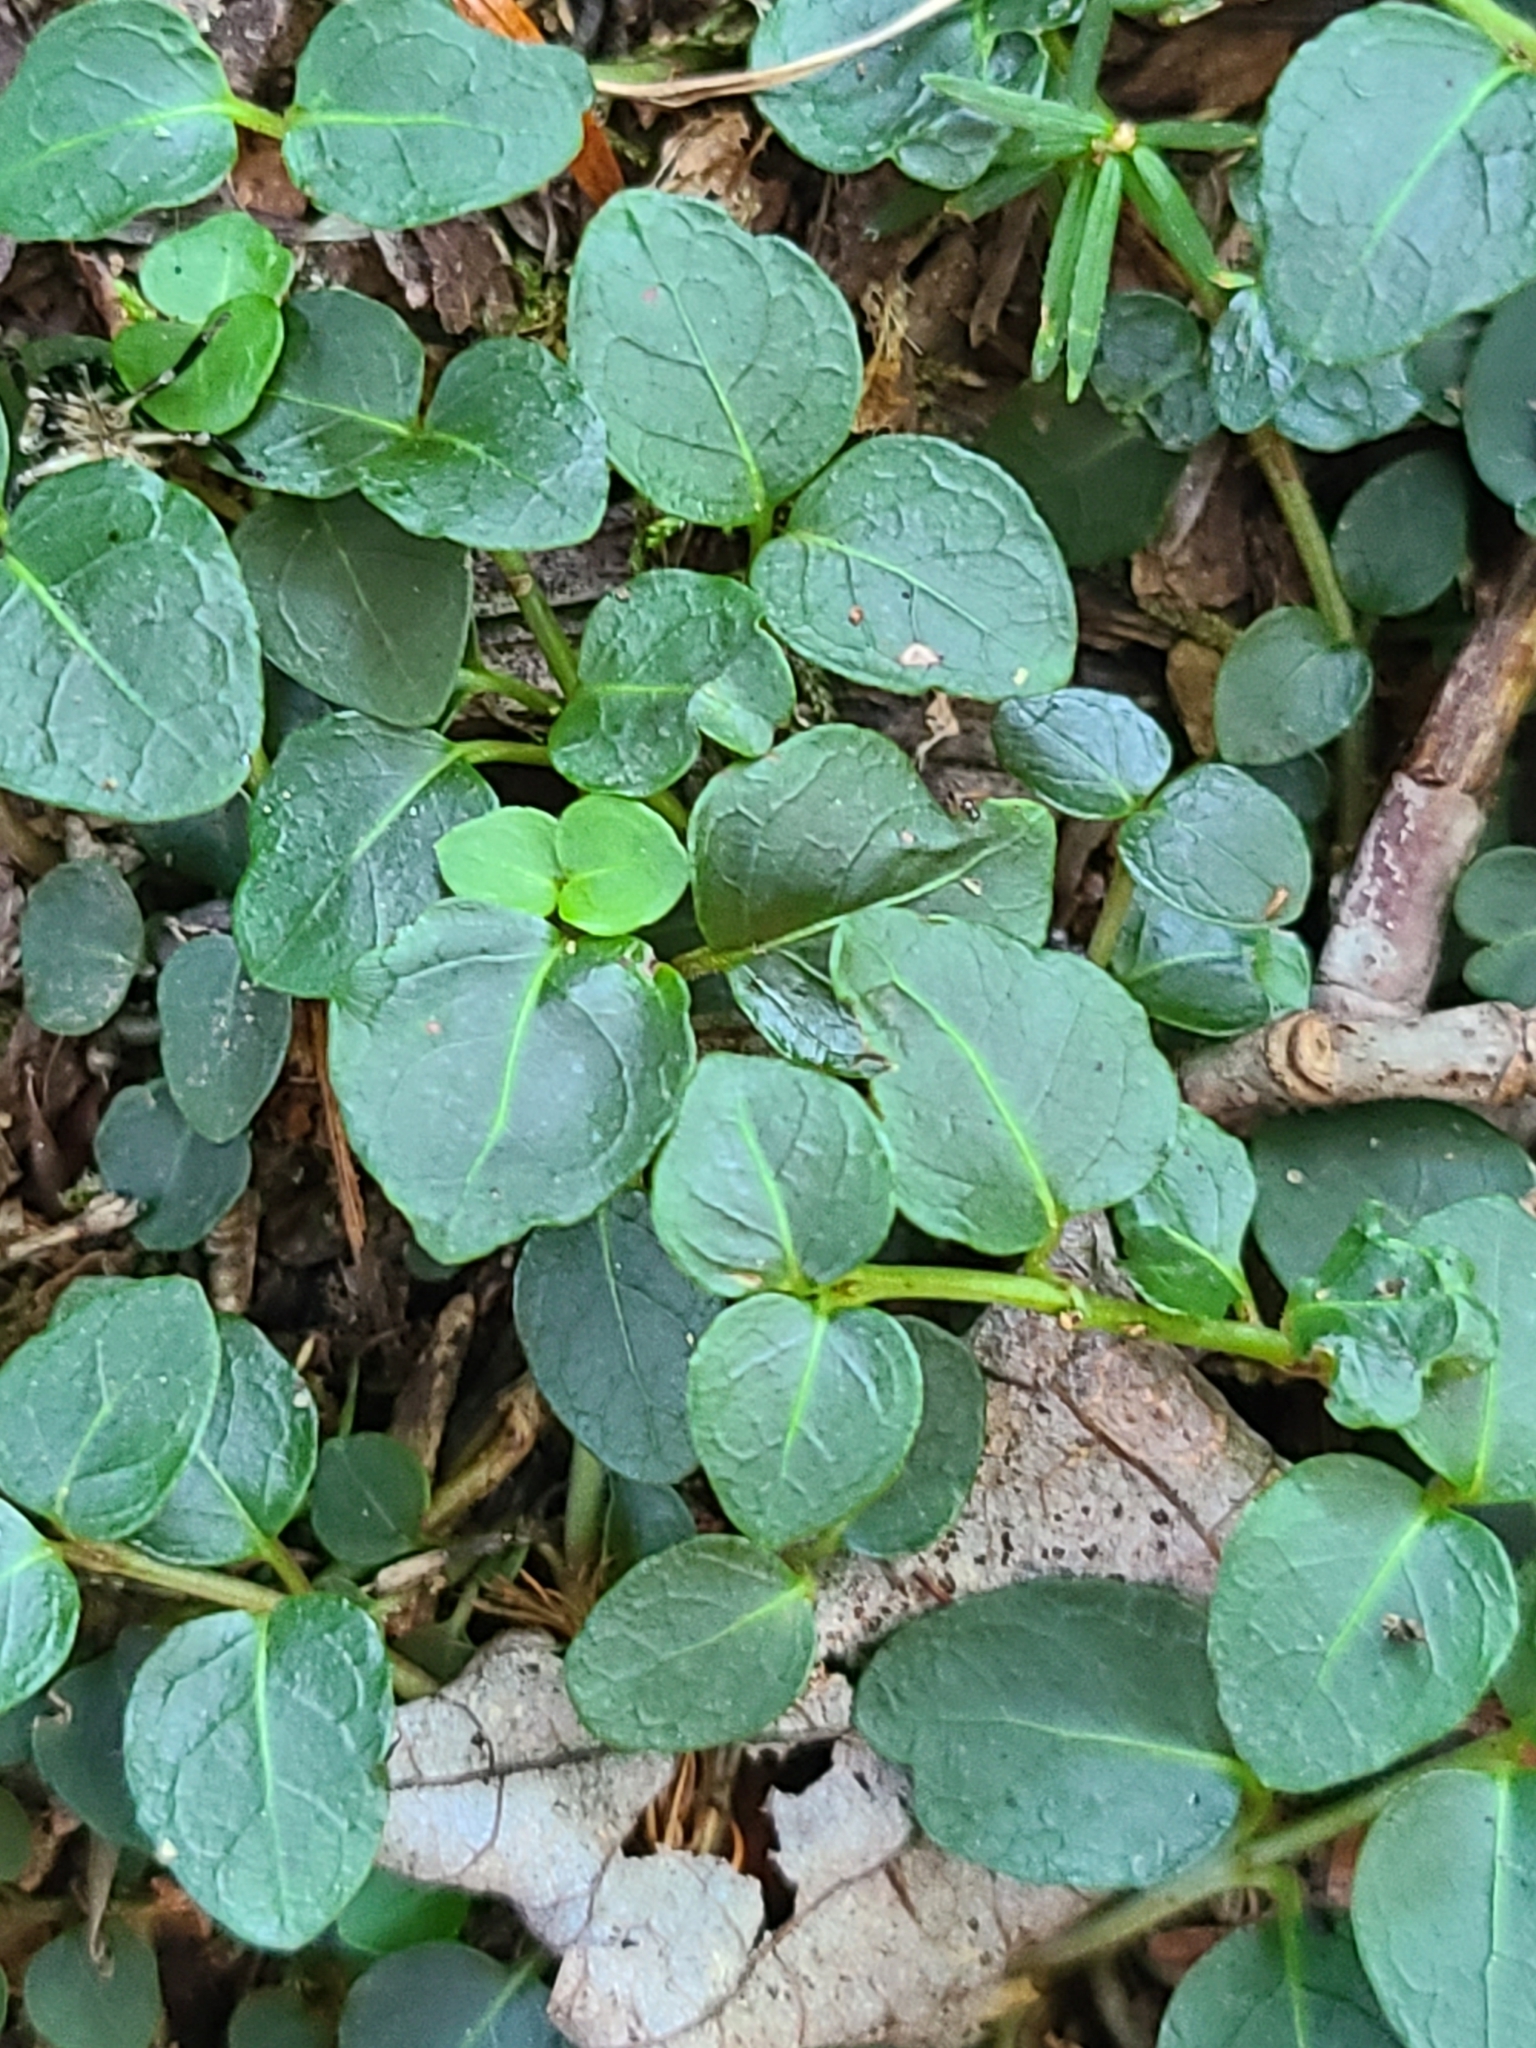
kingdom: Plantae
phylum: Tracheophyta
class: Magnoliopsida
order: Gentianales
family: Rubiaceae
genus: Mitchella
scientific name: Mitchella repens
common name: Partridge-berry
